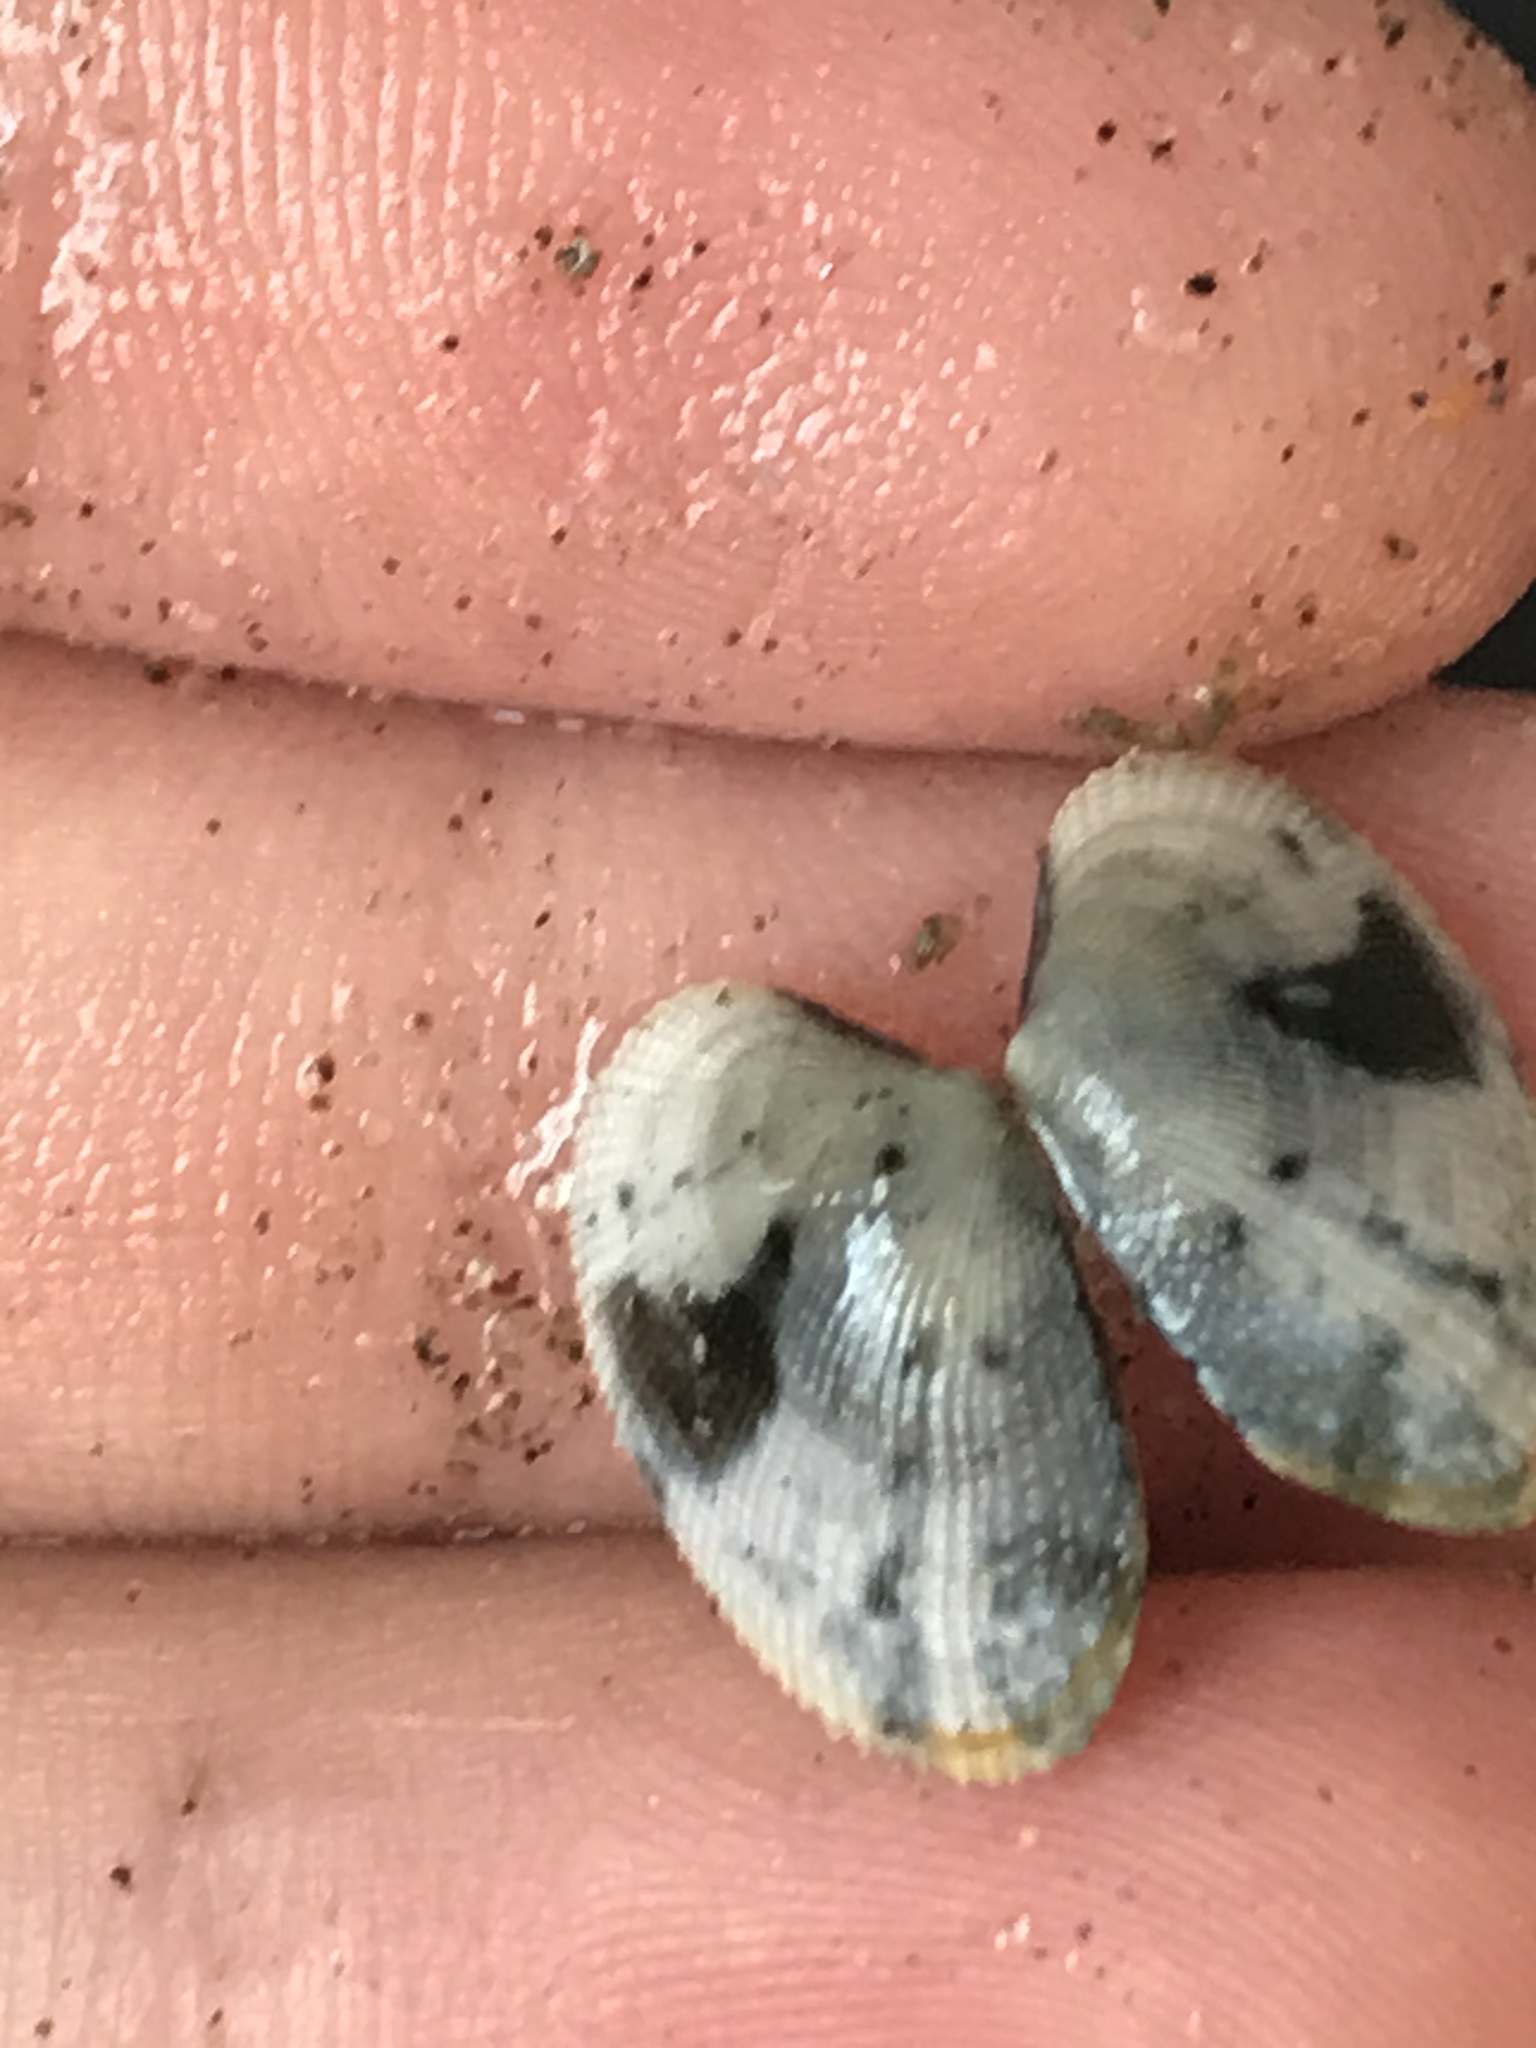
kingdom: Animalia
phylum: Mollusca
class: Bivalvia
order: Venerida
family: Veneridae
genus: Ruditapes
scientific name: Ruditapes philippinarum
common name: Manila clam
